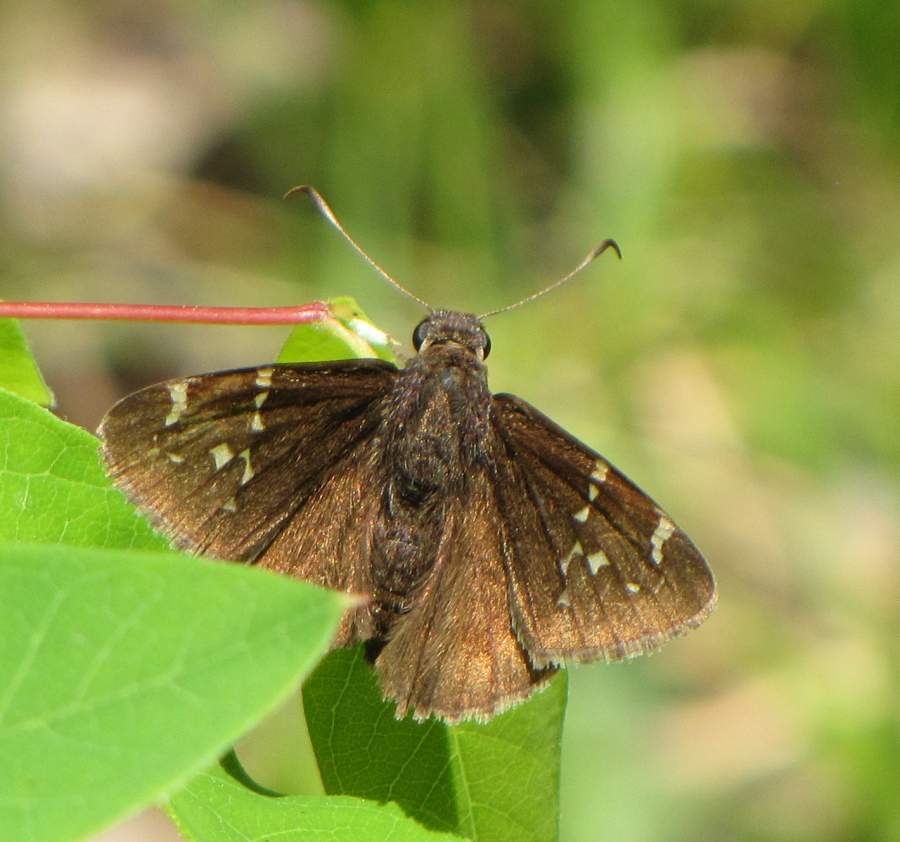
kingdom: Animalia
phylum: Arthropoda
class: Insecta
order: Lepidoptera
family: Hesperiidae
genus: Thorybes
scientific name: Thorybes pylades
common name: Northern cloudywing
